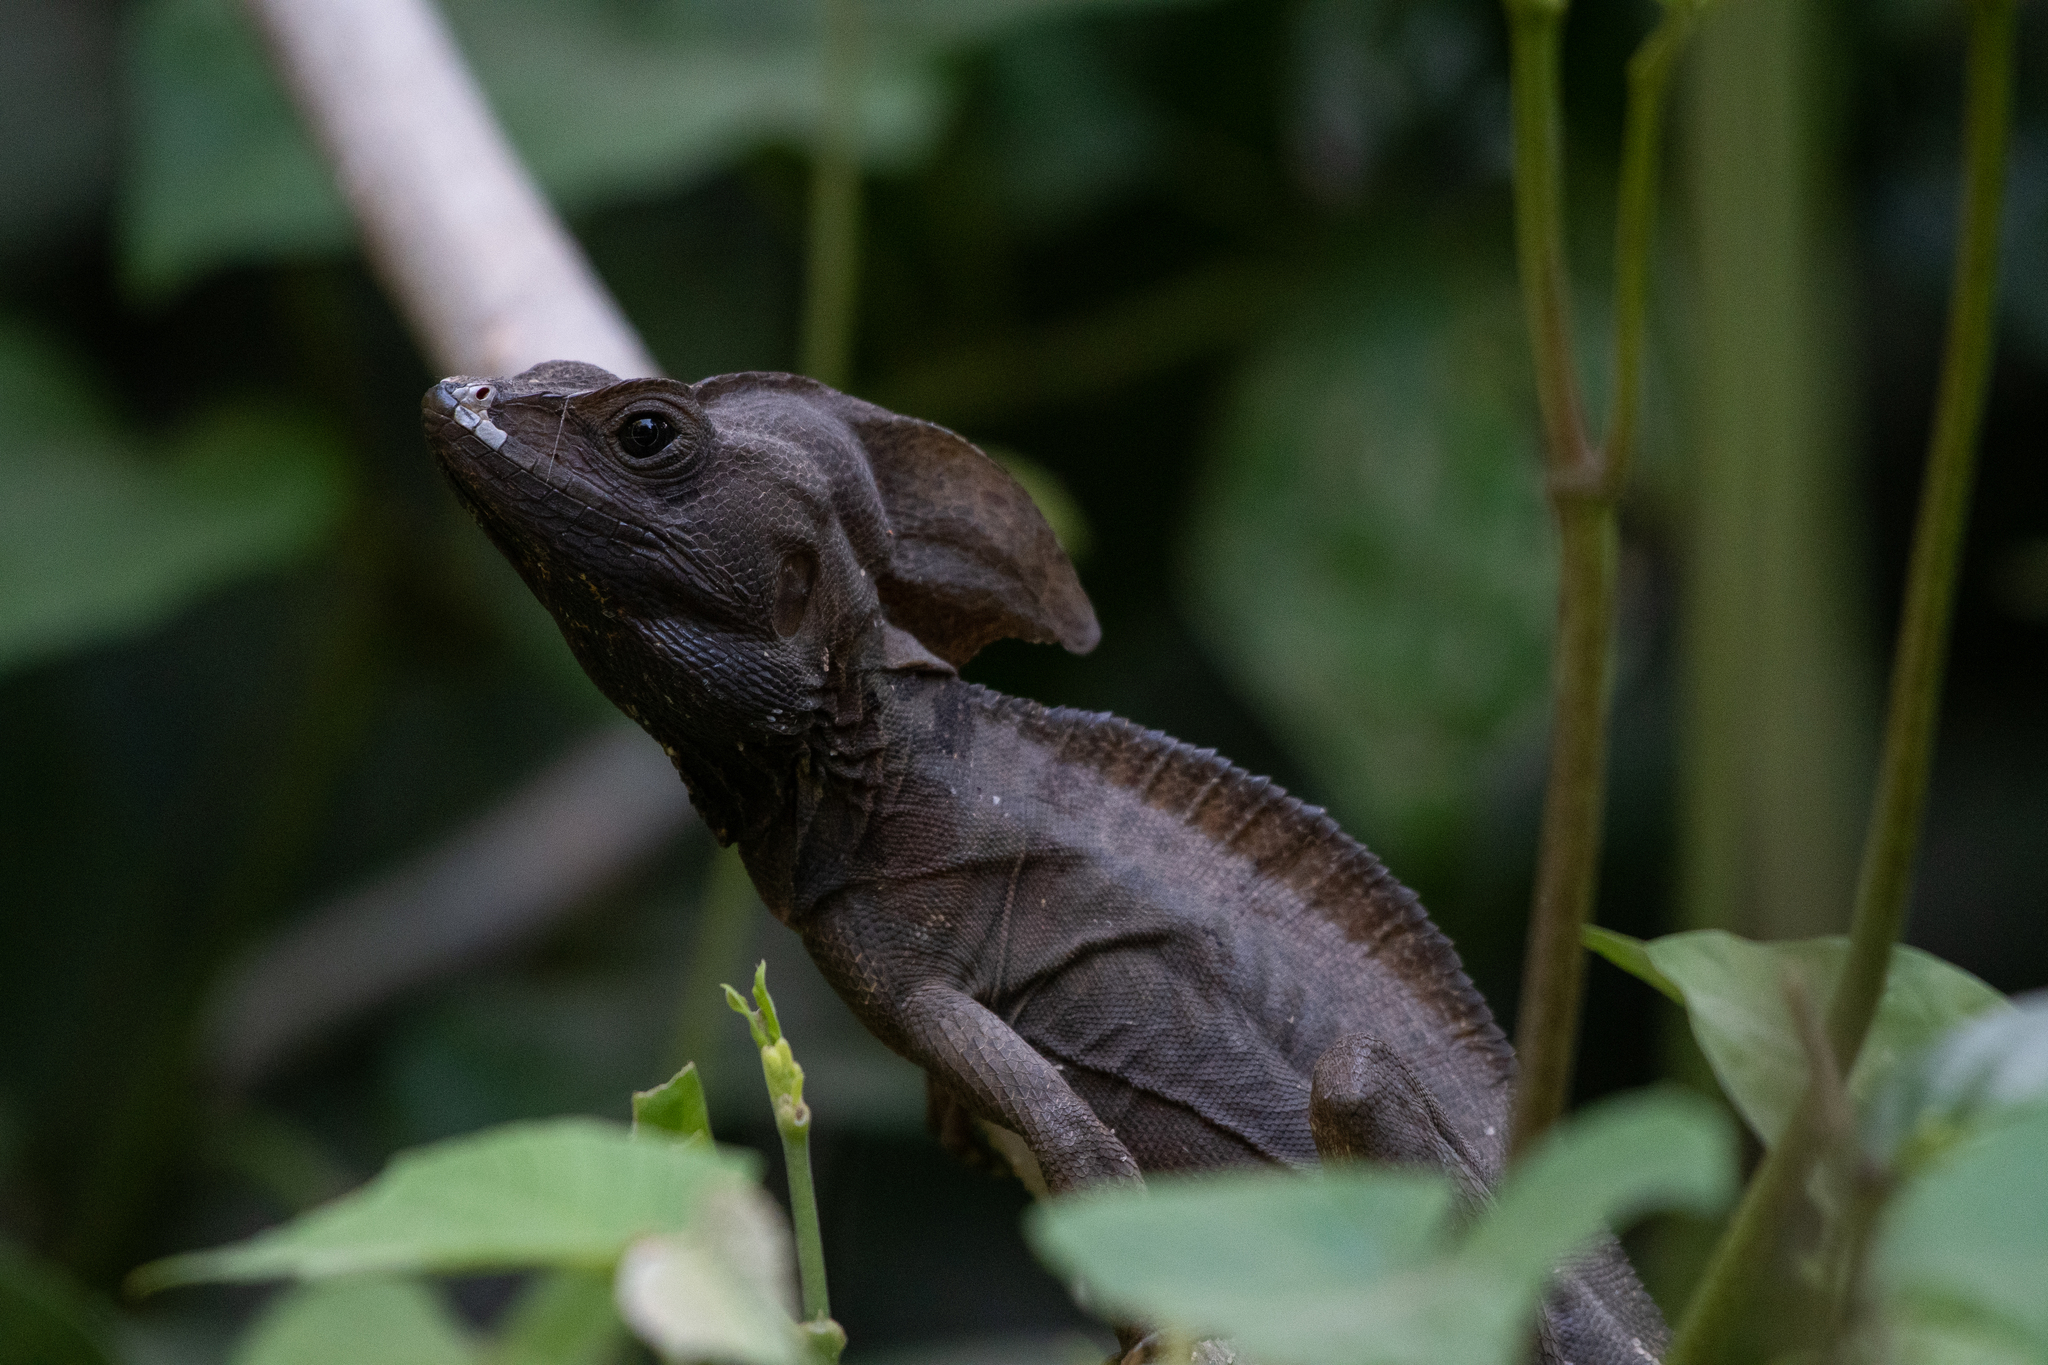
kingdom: Animalia
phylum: Chordata
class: Squamata
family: Corytophanidae
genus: Basiliscus
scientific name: Basiliscus vittatus
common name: Brown basilisk
